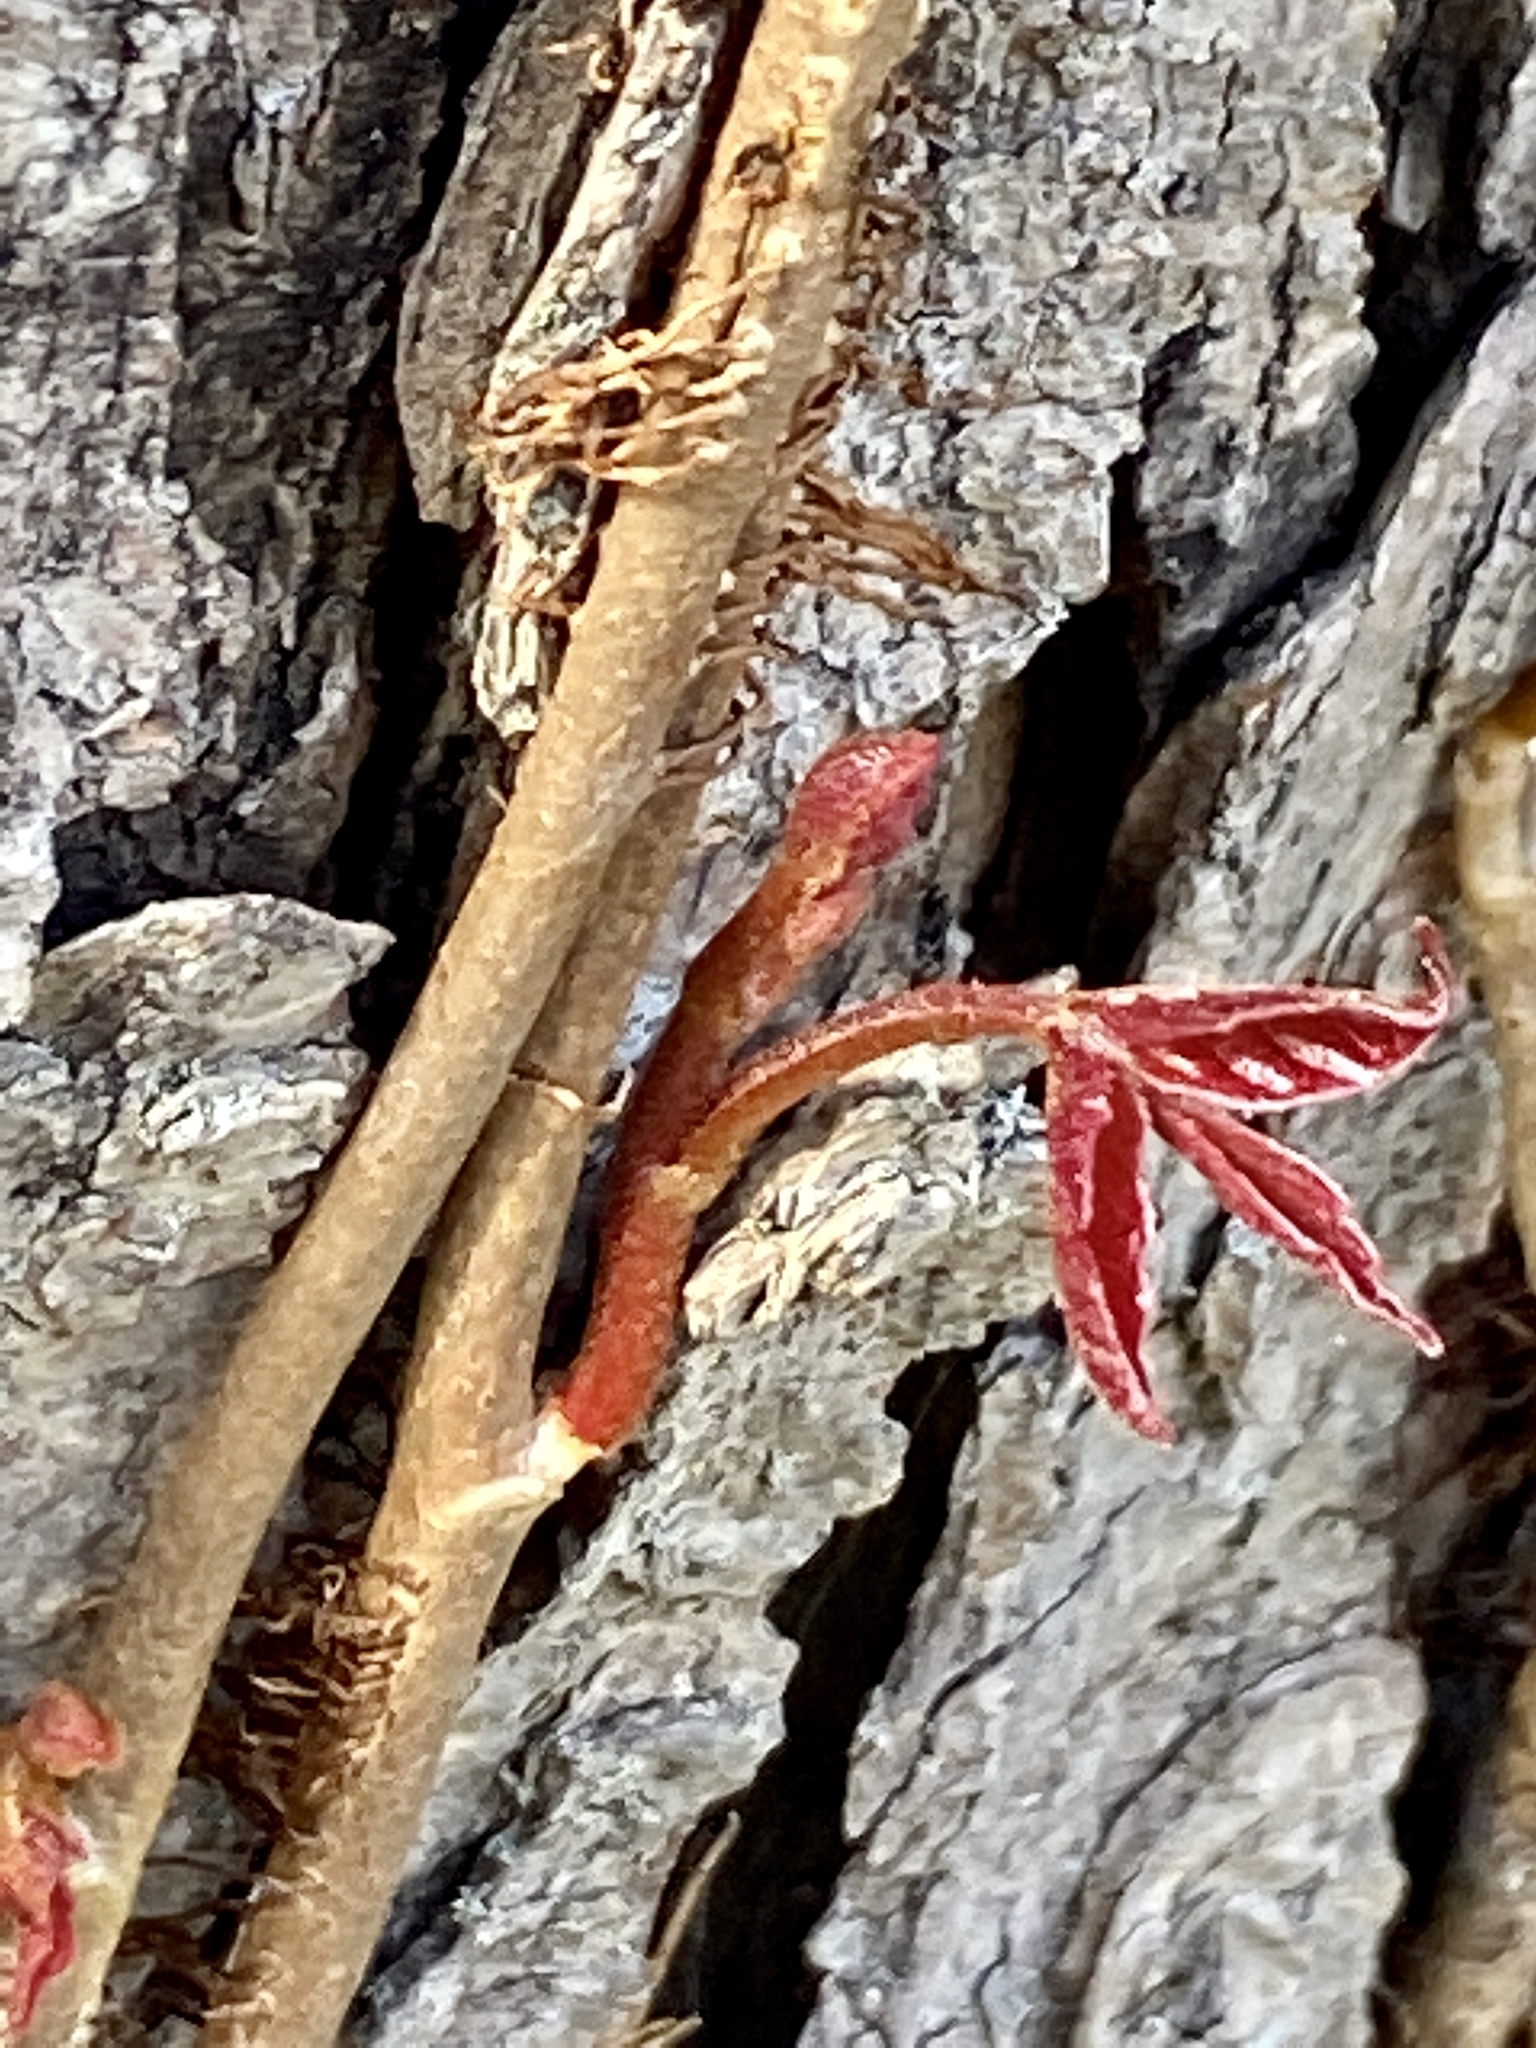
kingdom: Plantae
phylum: Tracheophyta
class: Magnoliopsida
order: Sapindales
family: Anacardiaceae
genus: Toxicodendron
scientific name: Toxicodendron radicans
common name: Poison ivy
